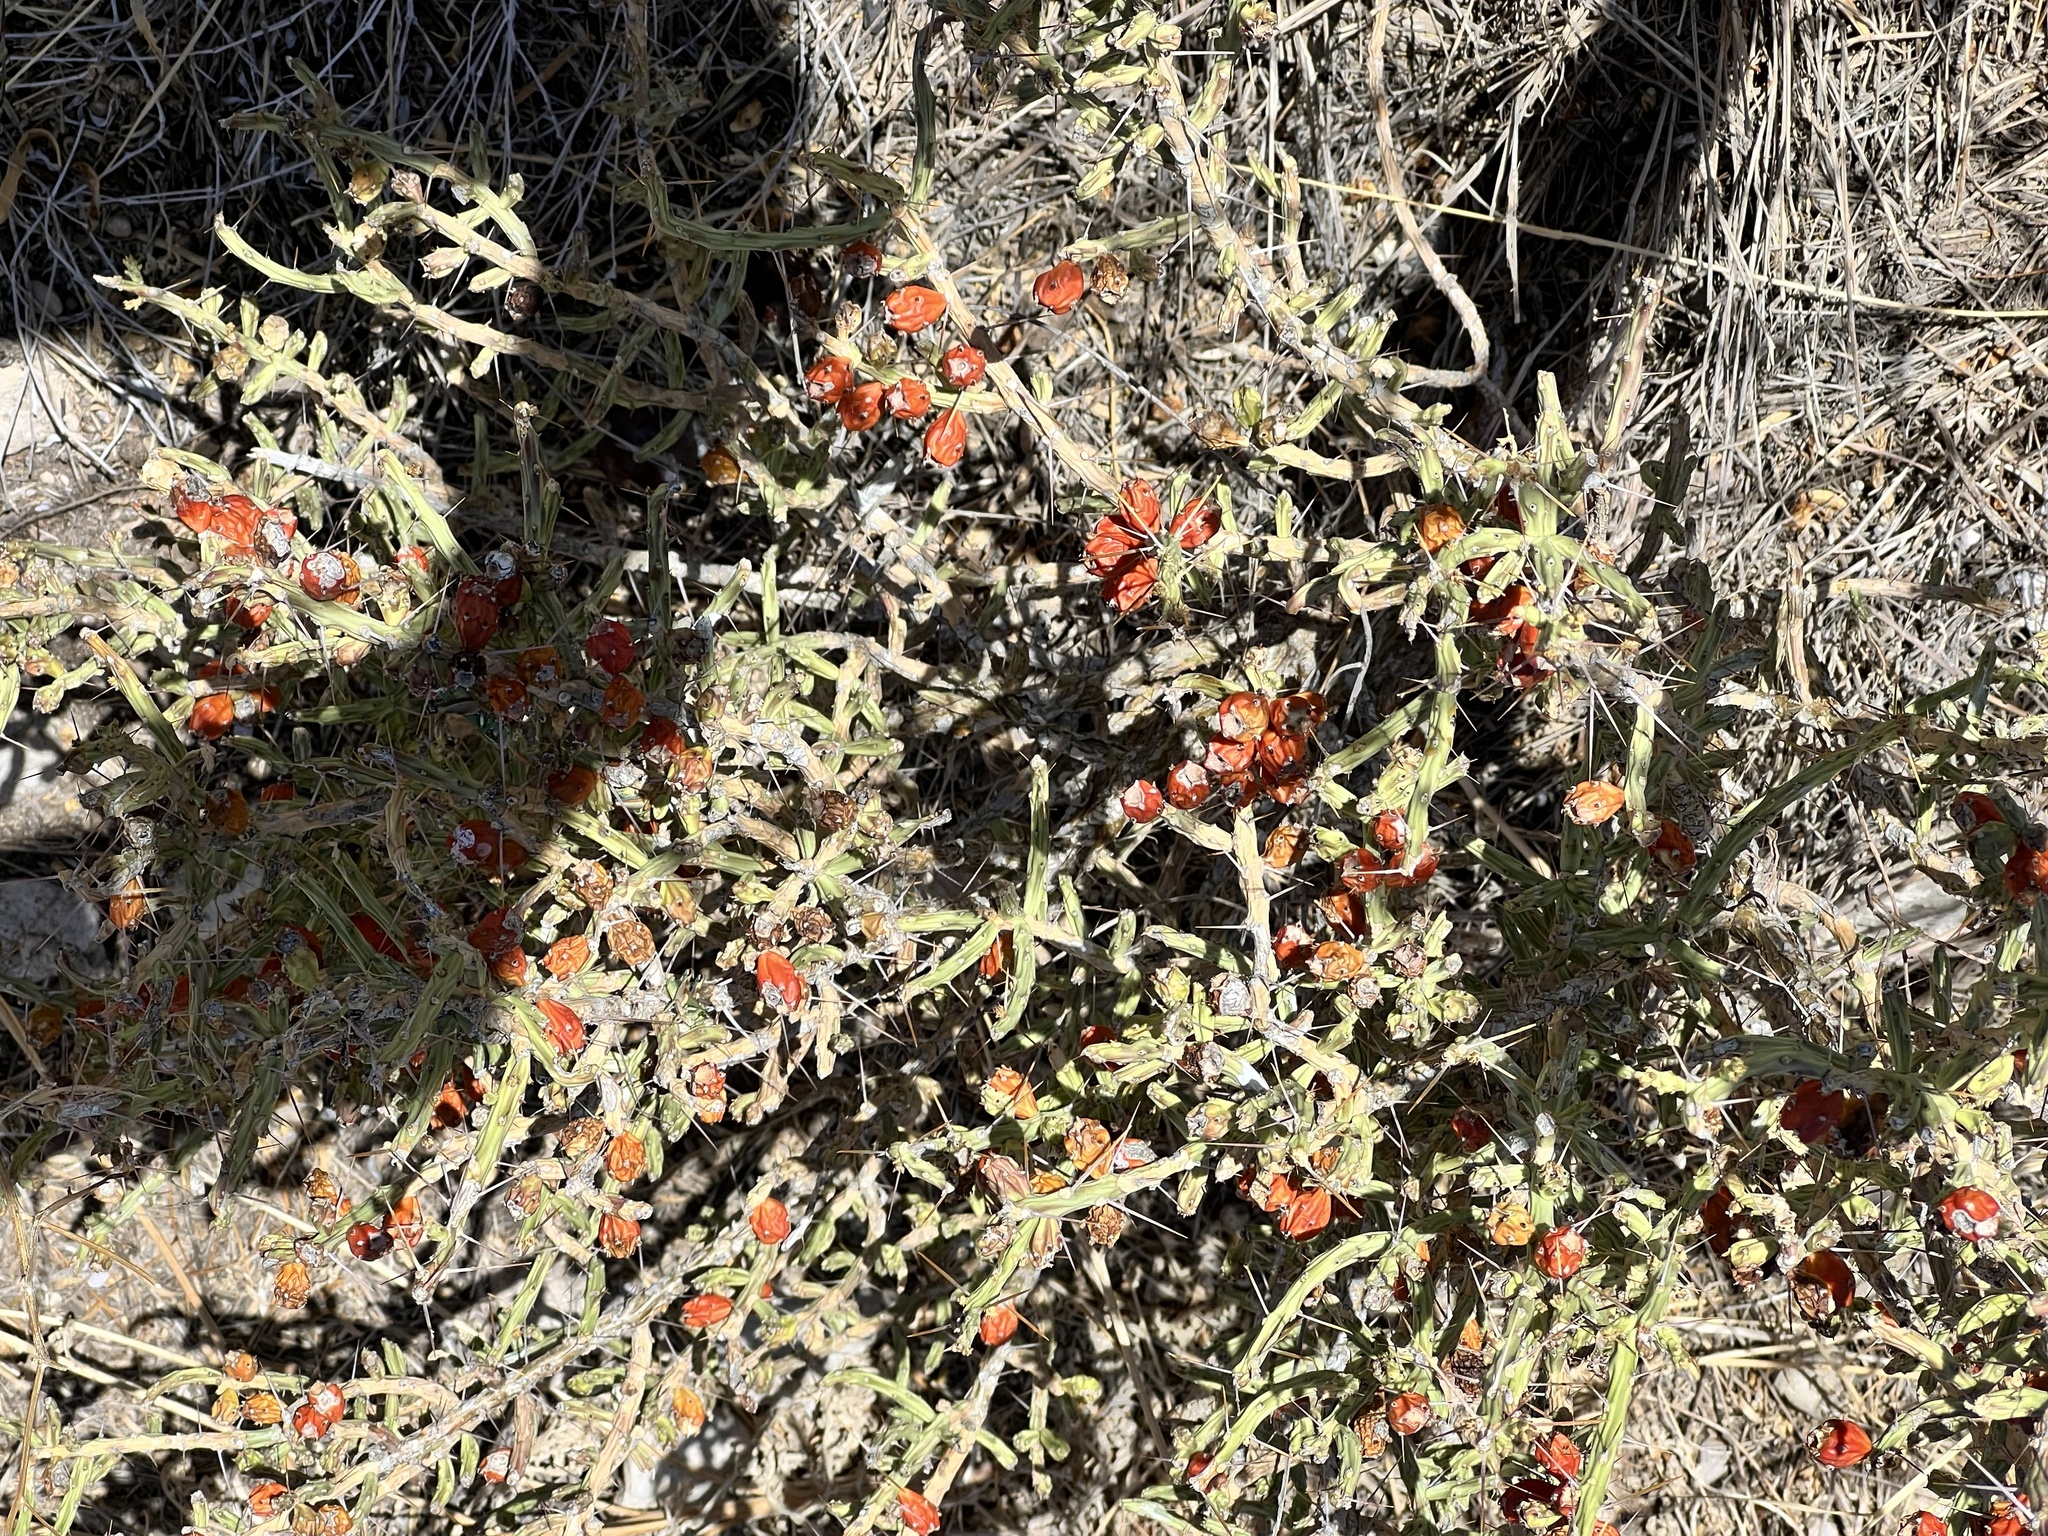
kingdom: Plantae
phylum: Tracheophyta
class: Magnoliopsida
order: Caryophyllales
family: Cactaceae
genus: Cylindropuntia
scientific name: Cylindropuntia leptocaulis
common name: Christmas cactus
